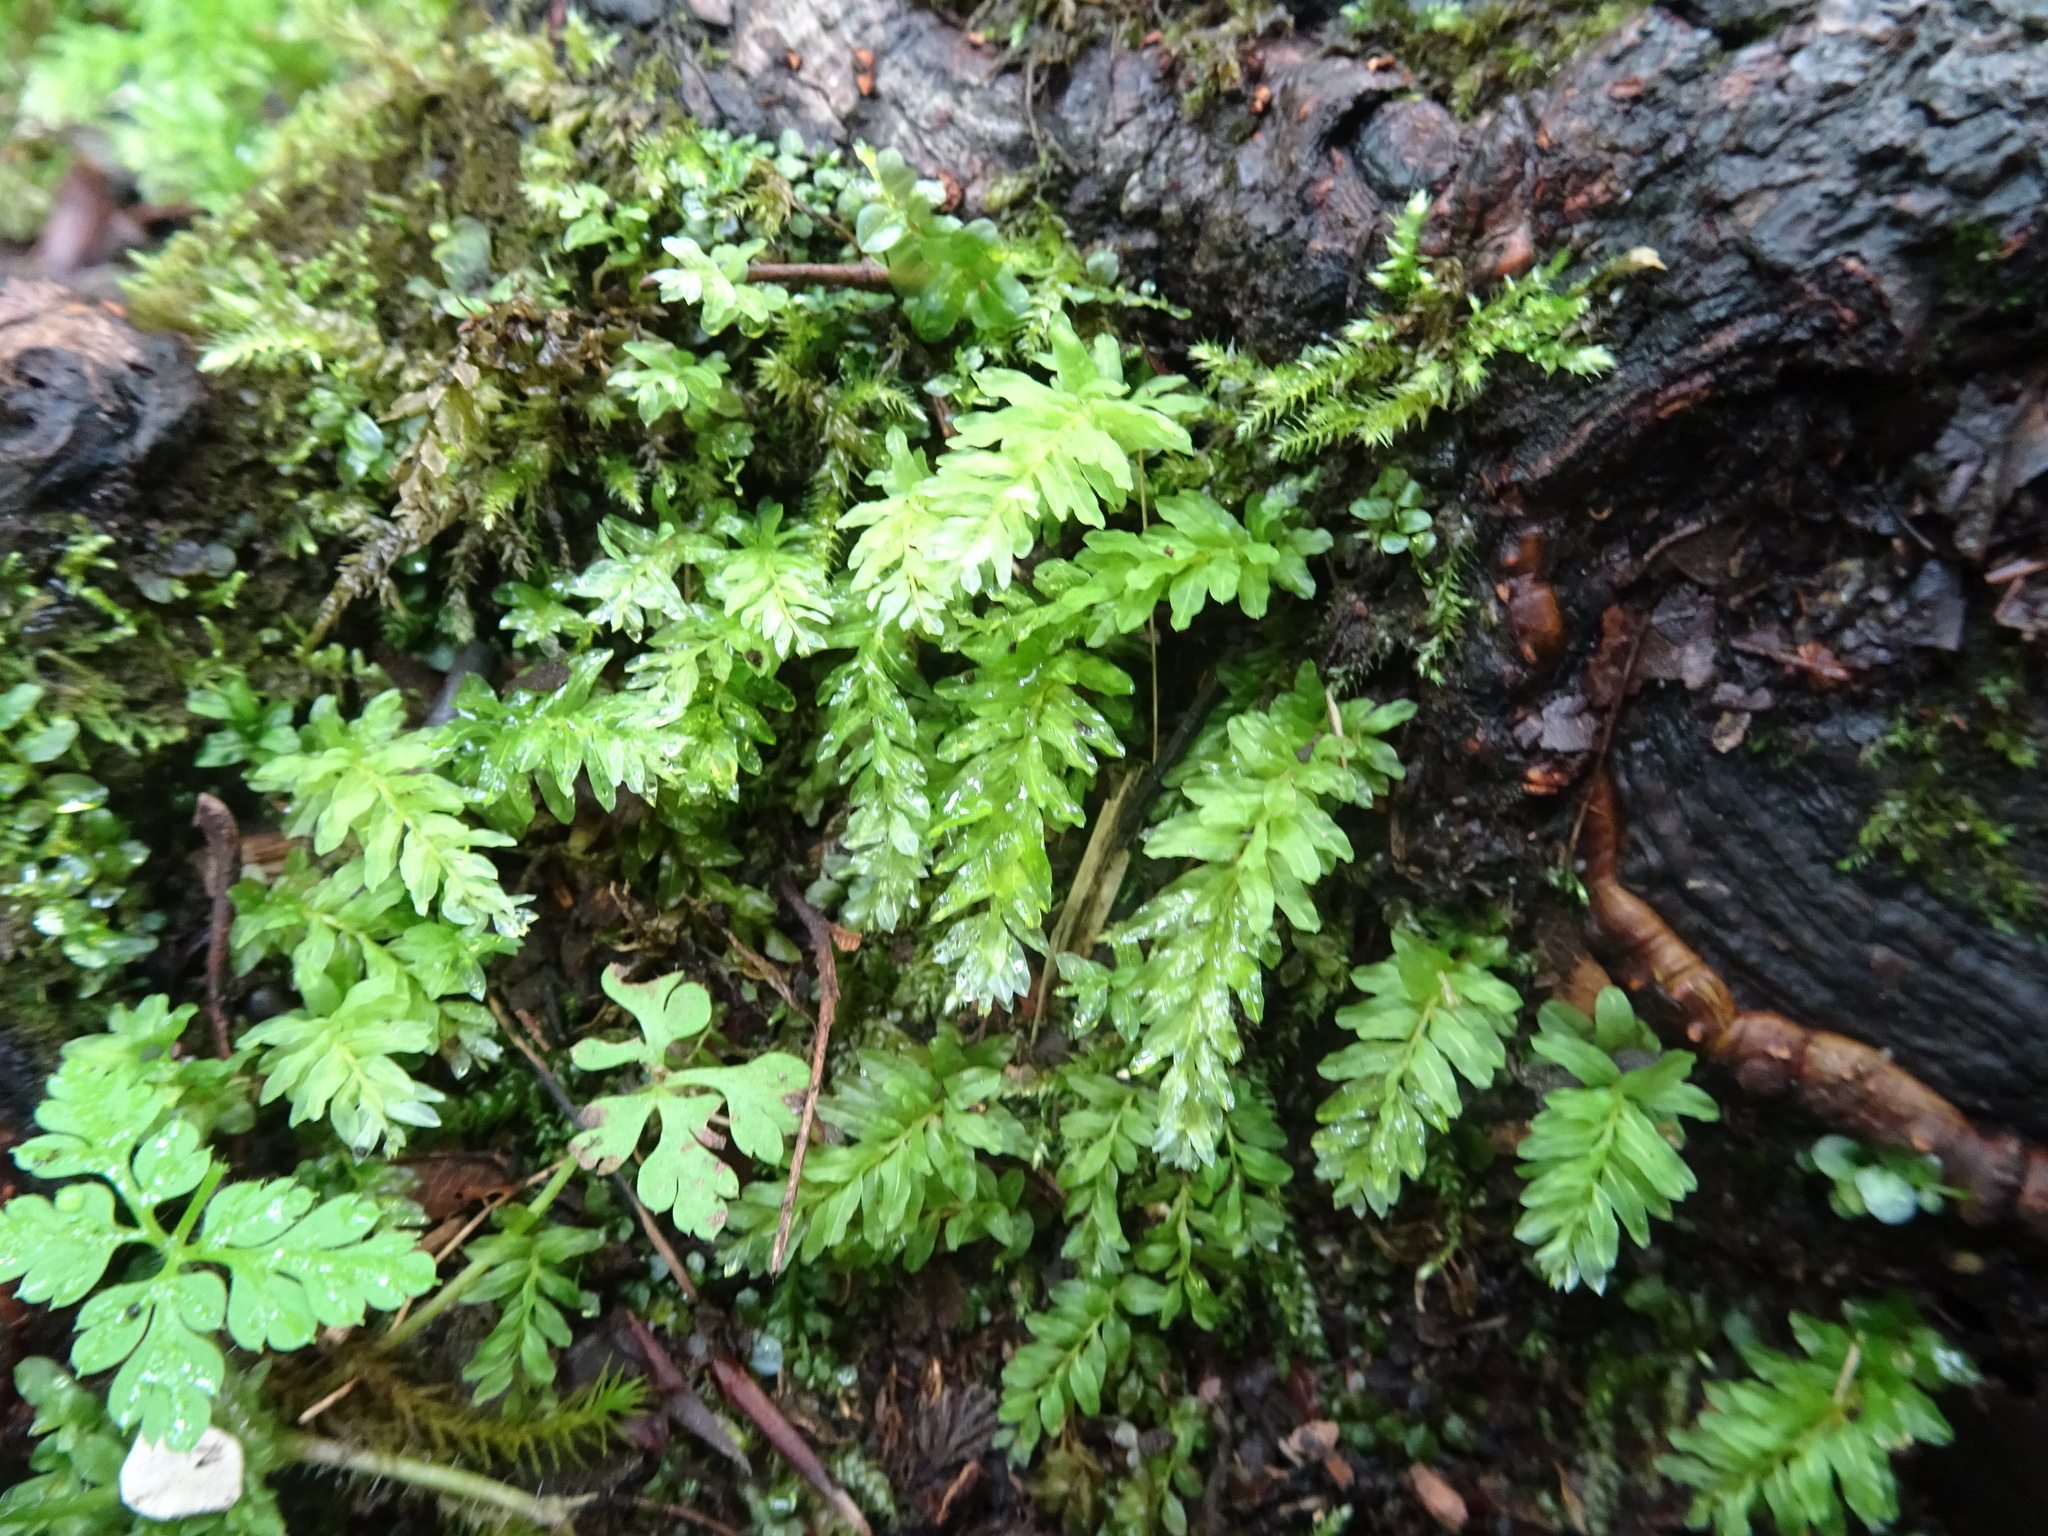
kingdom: Plantae
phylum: Bryophyta
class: Bryopsida
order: Bryales
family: Mniaceae
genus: Plagiomnium
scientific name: Plagiomnium undulatum
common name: Hart's-tongue thyme-moss
